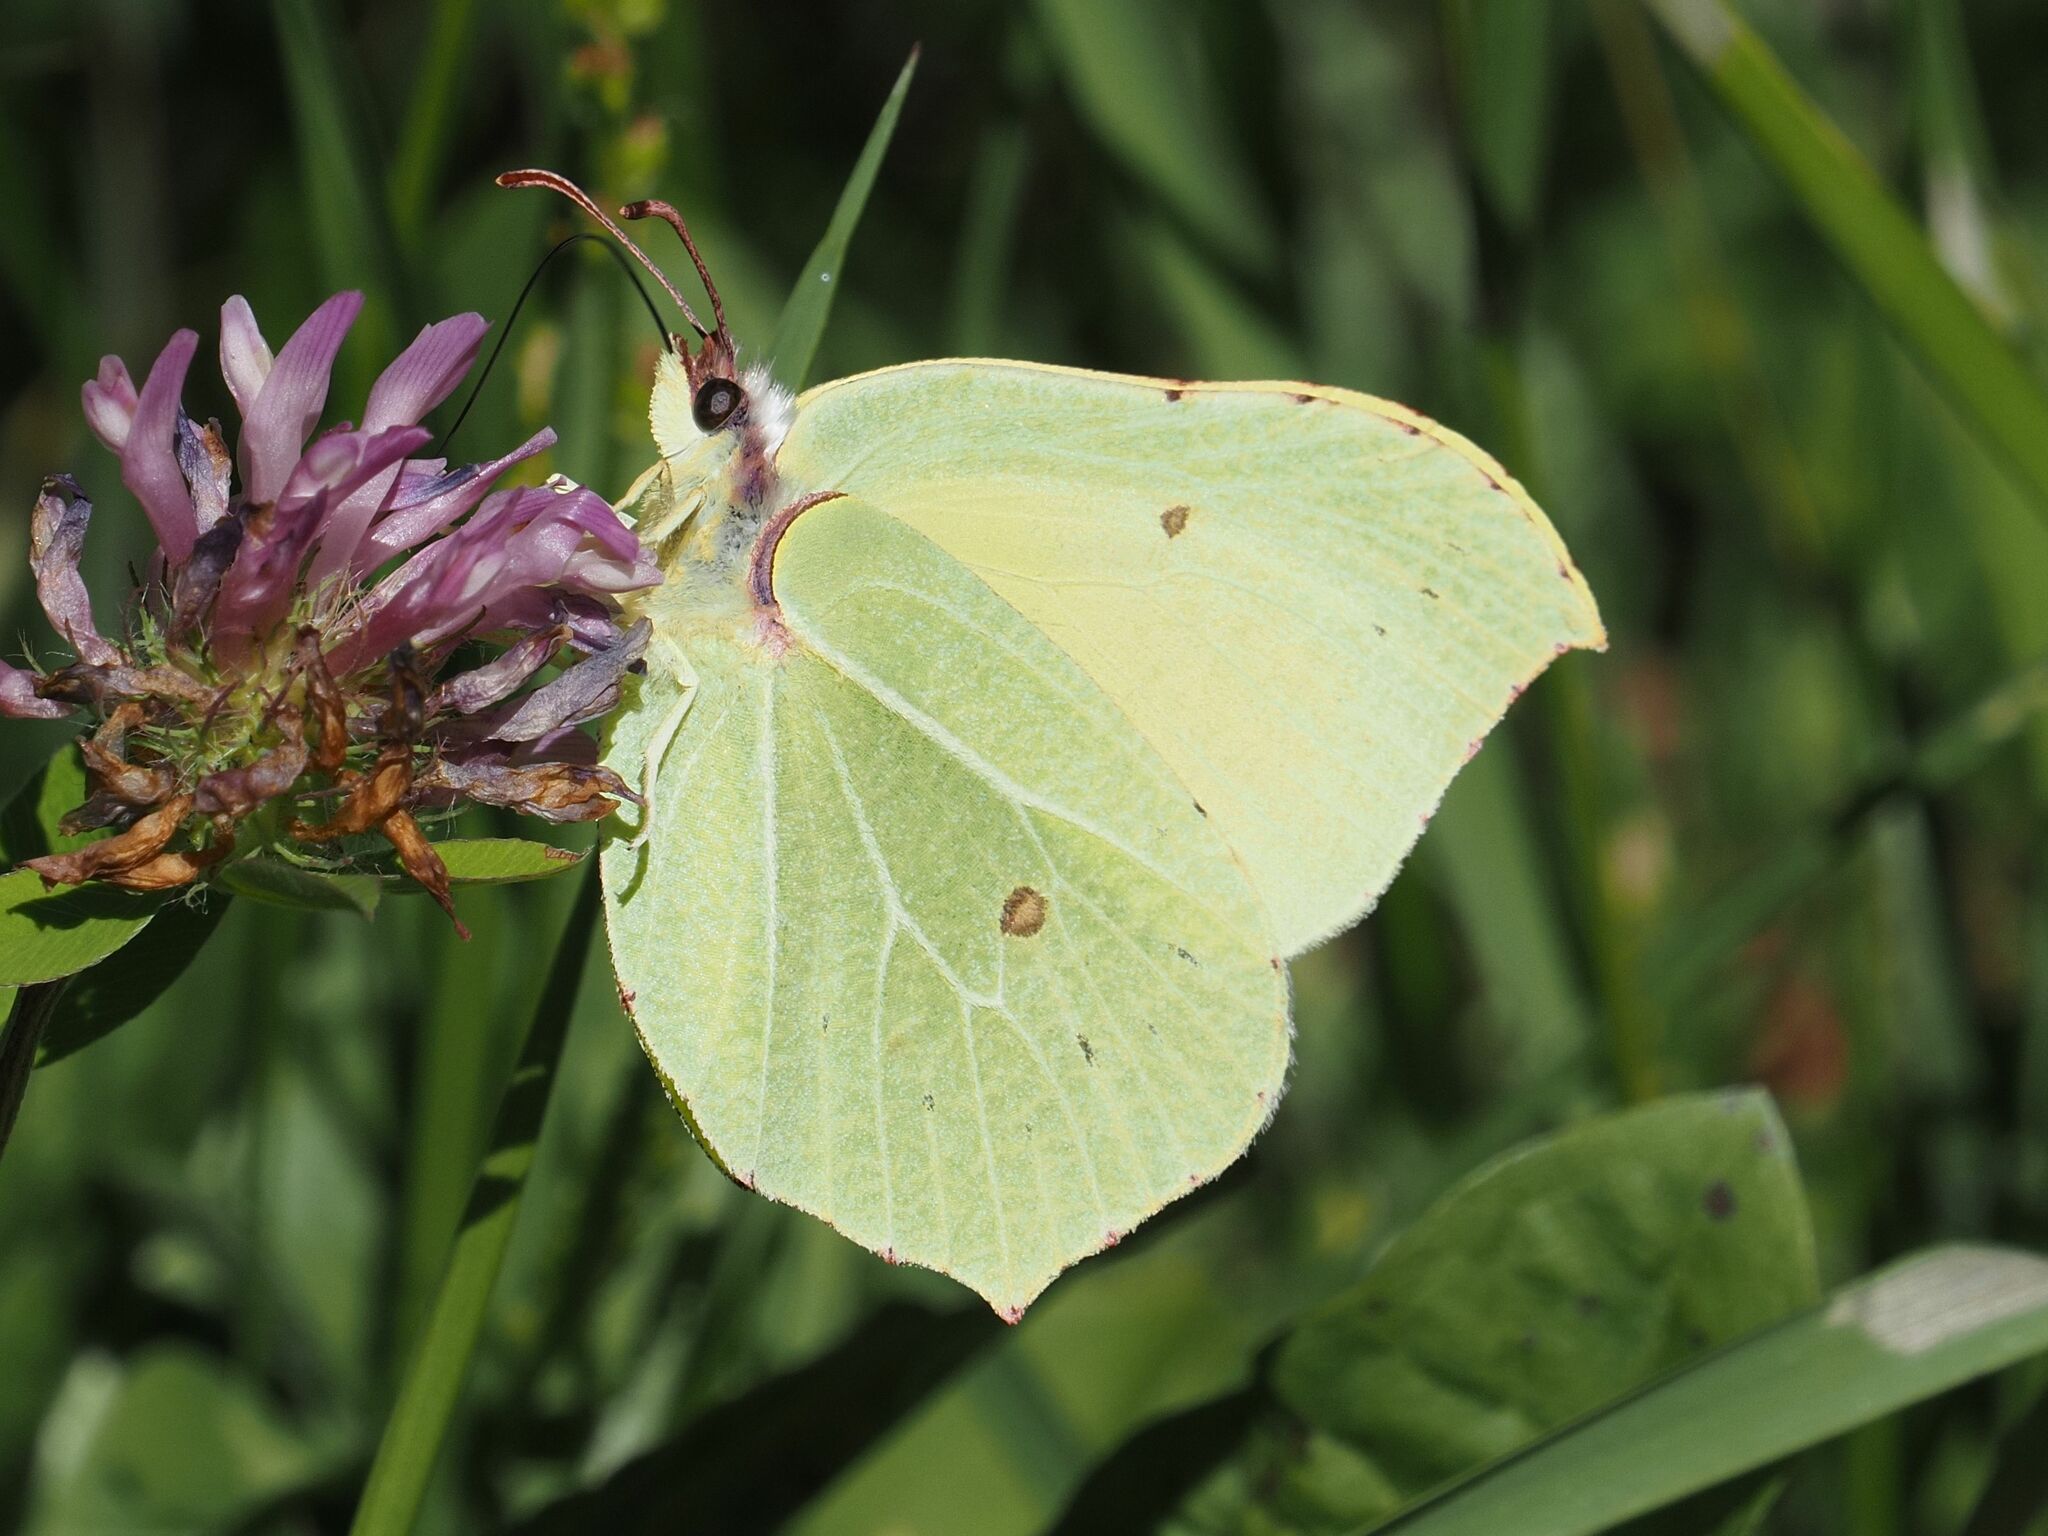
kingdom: Animalia
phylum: Arthropoda
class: Insecta
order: Lepidoptera
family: Pieridae
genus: Gonepteryx
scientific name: Gonepteryx rhamni
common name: Brimstone
